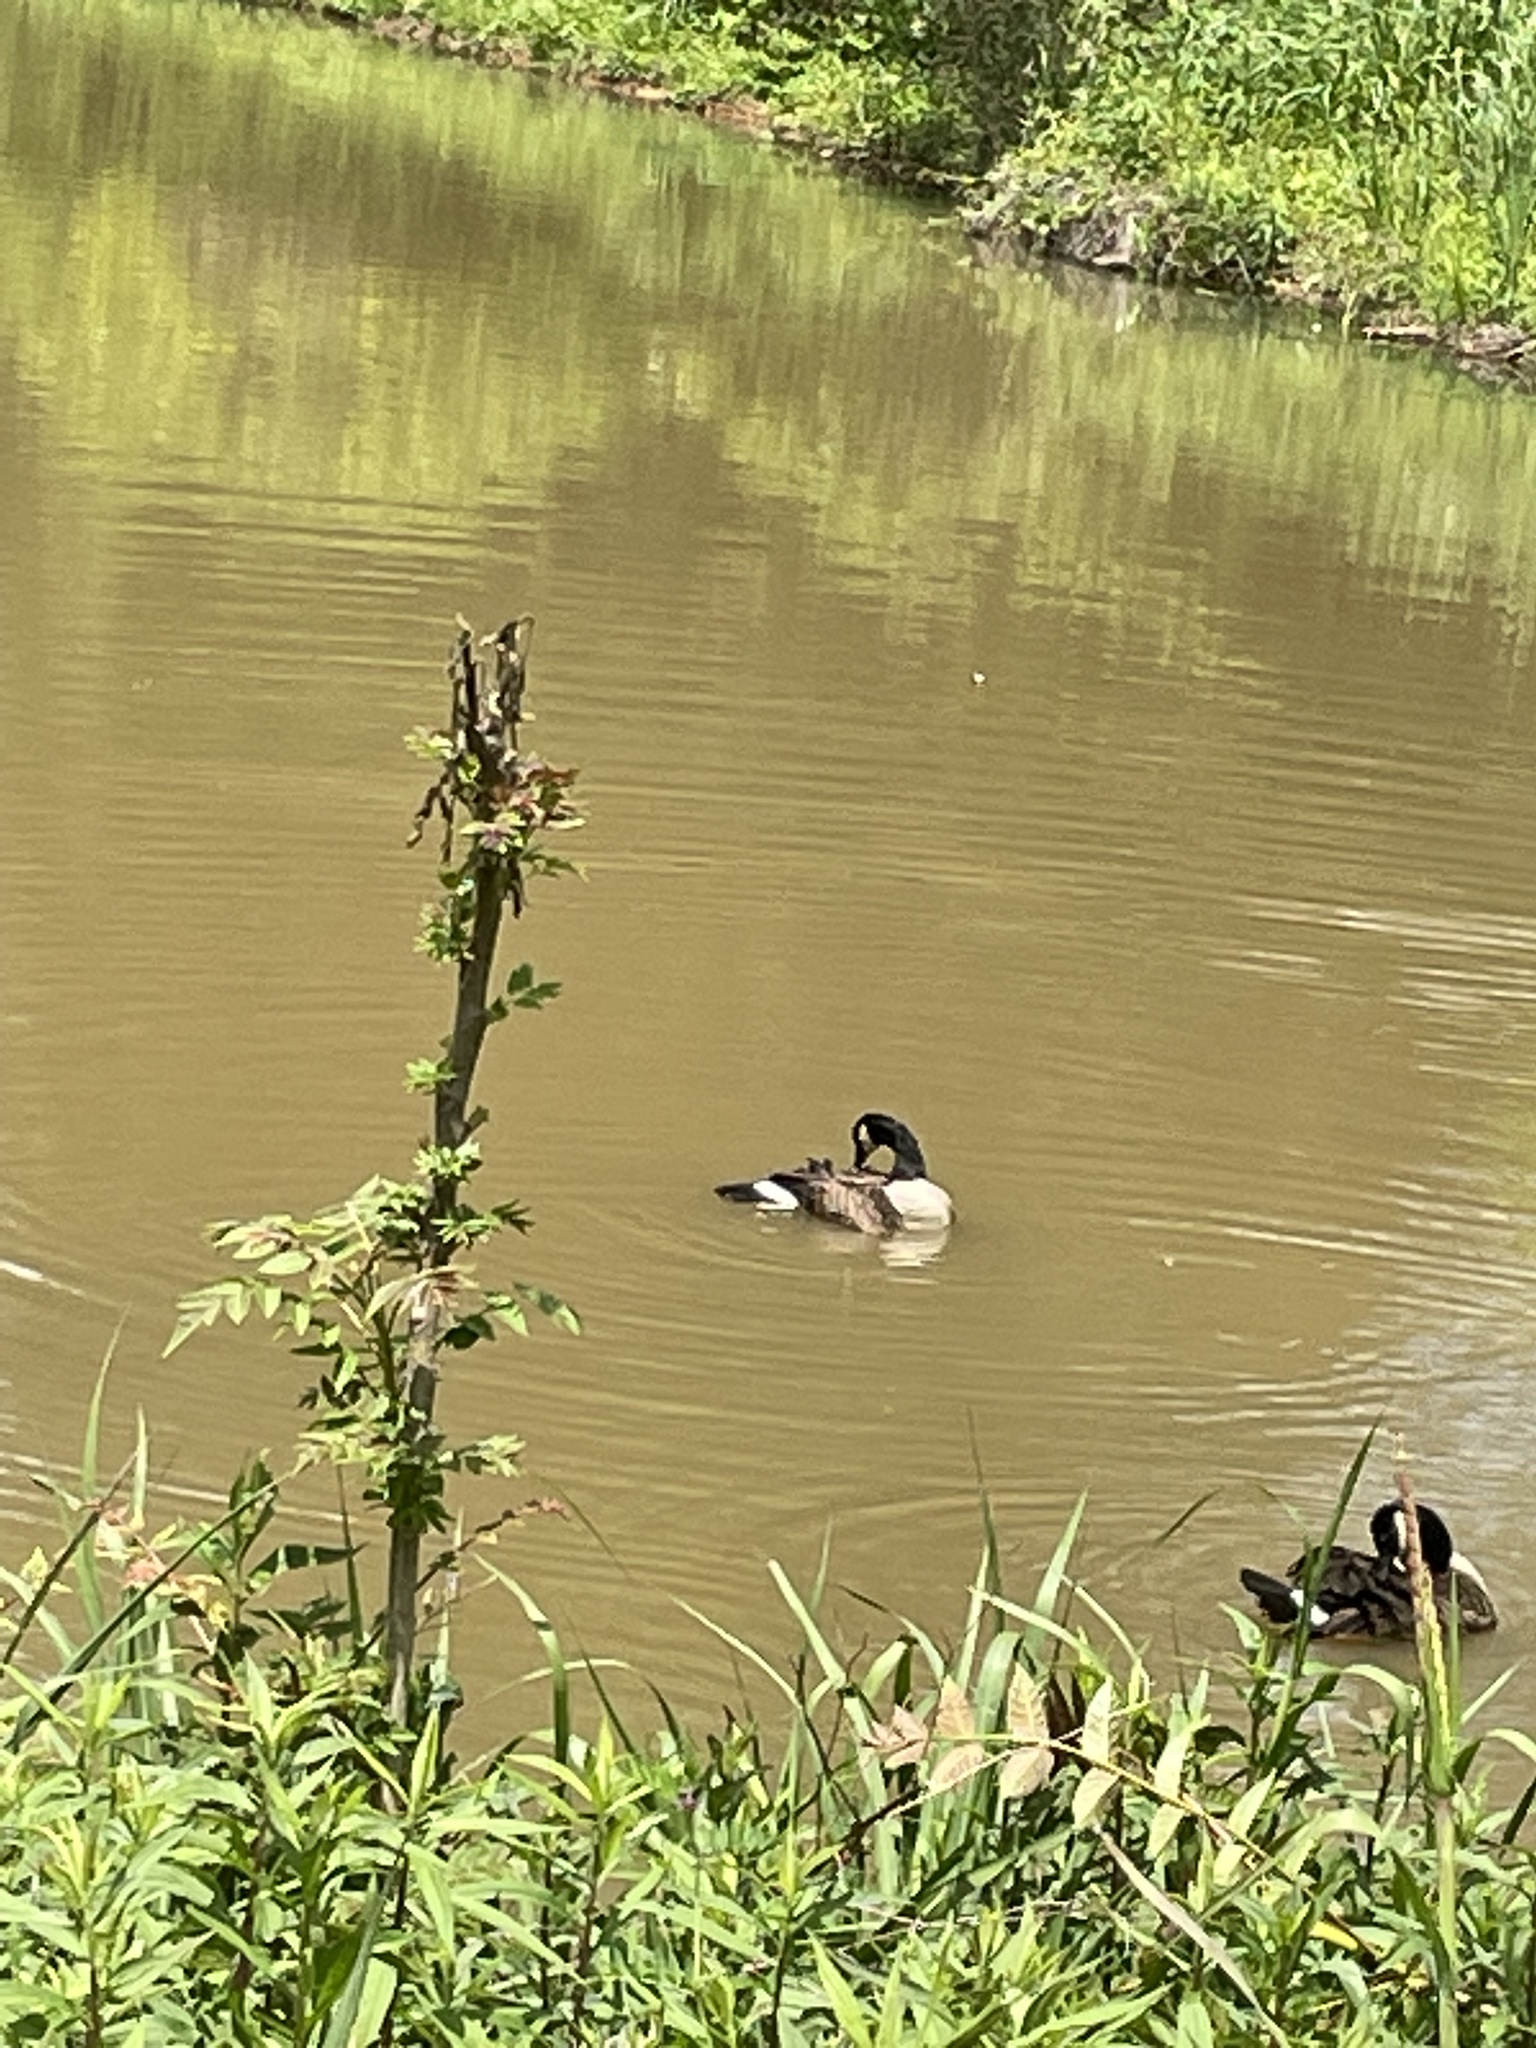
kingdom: Animalia
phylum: Chordata
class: Aves
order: Anseriformes
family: Anatidae
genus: Branta
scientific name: Branta canadensis
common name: Canada goose
